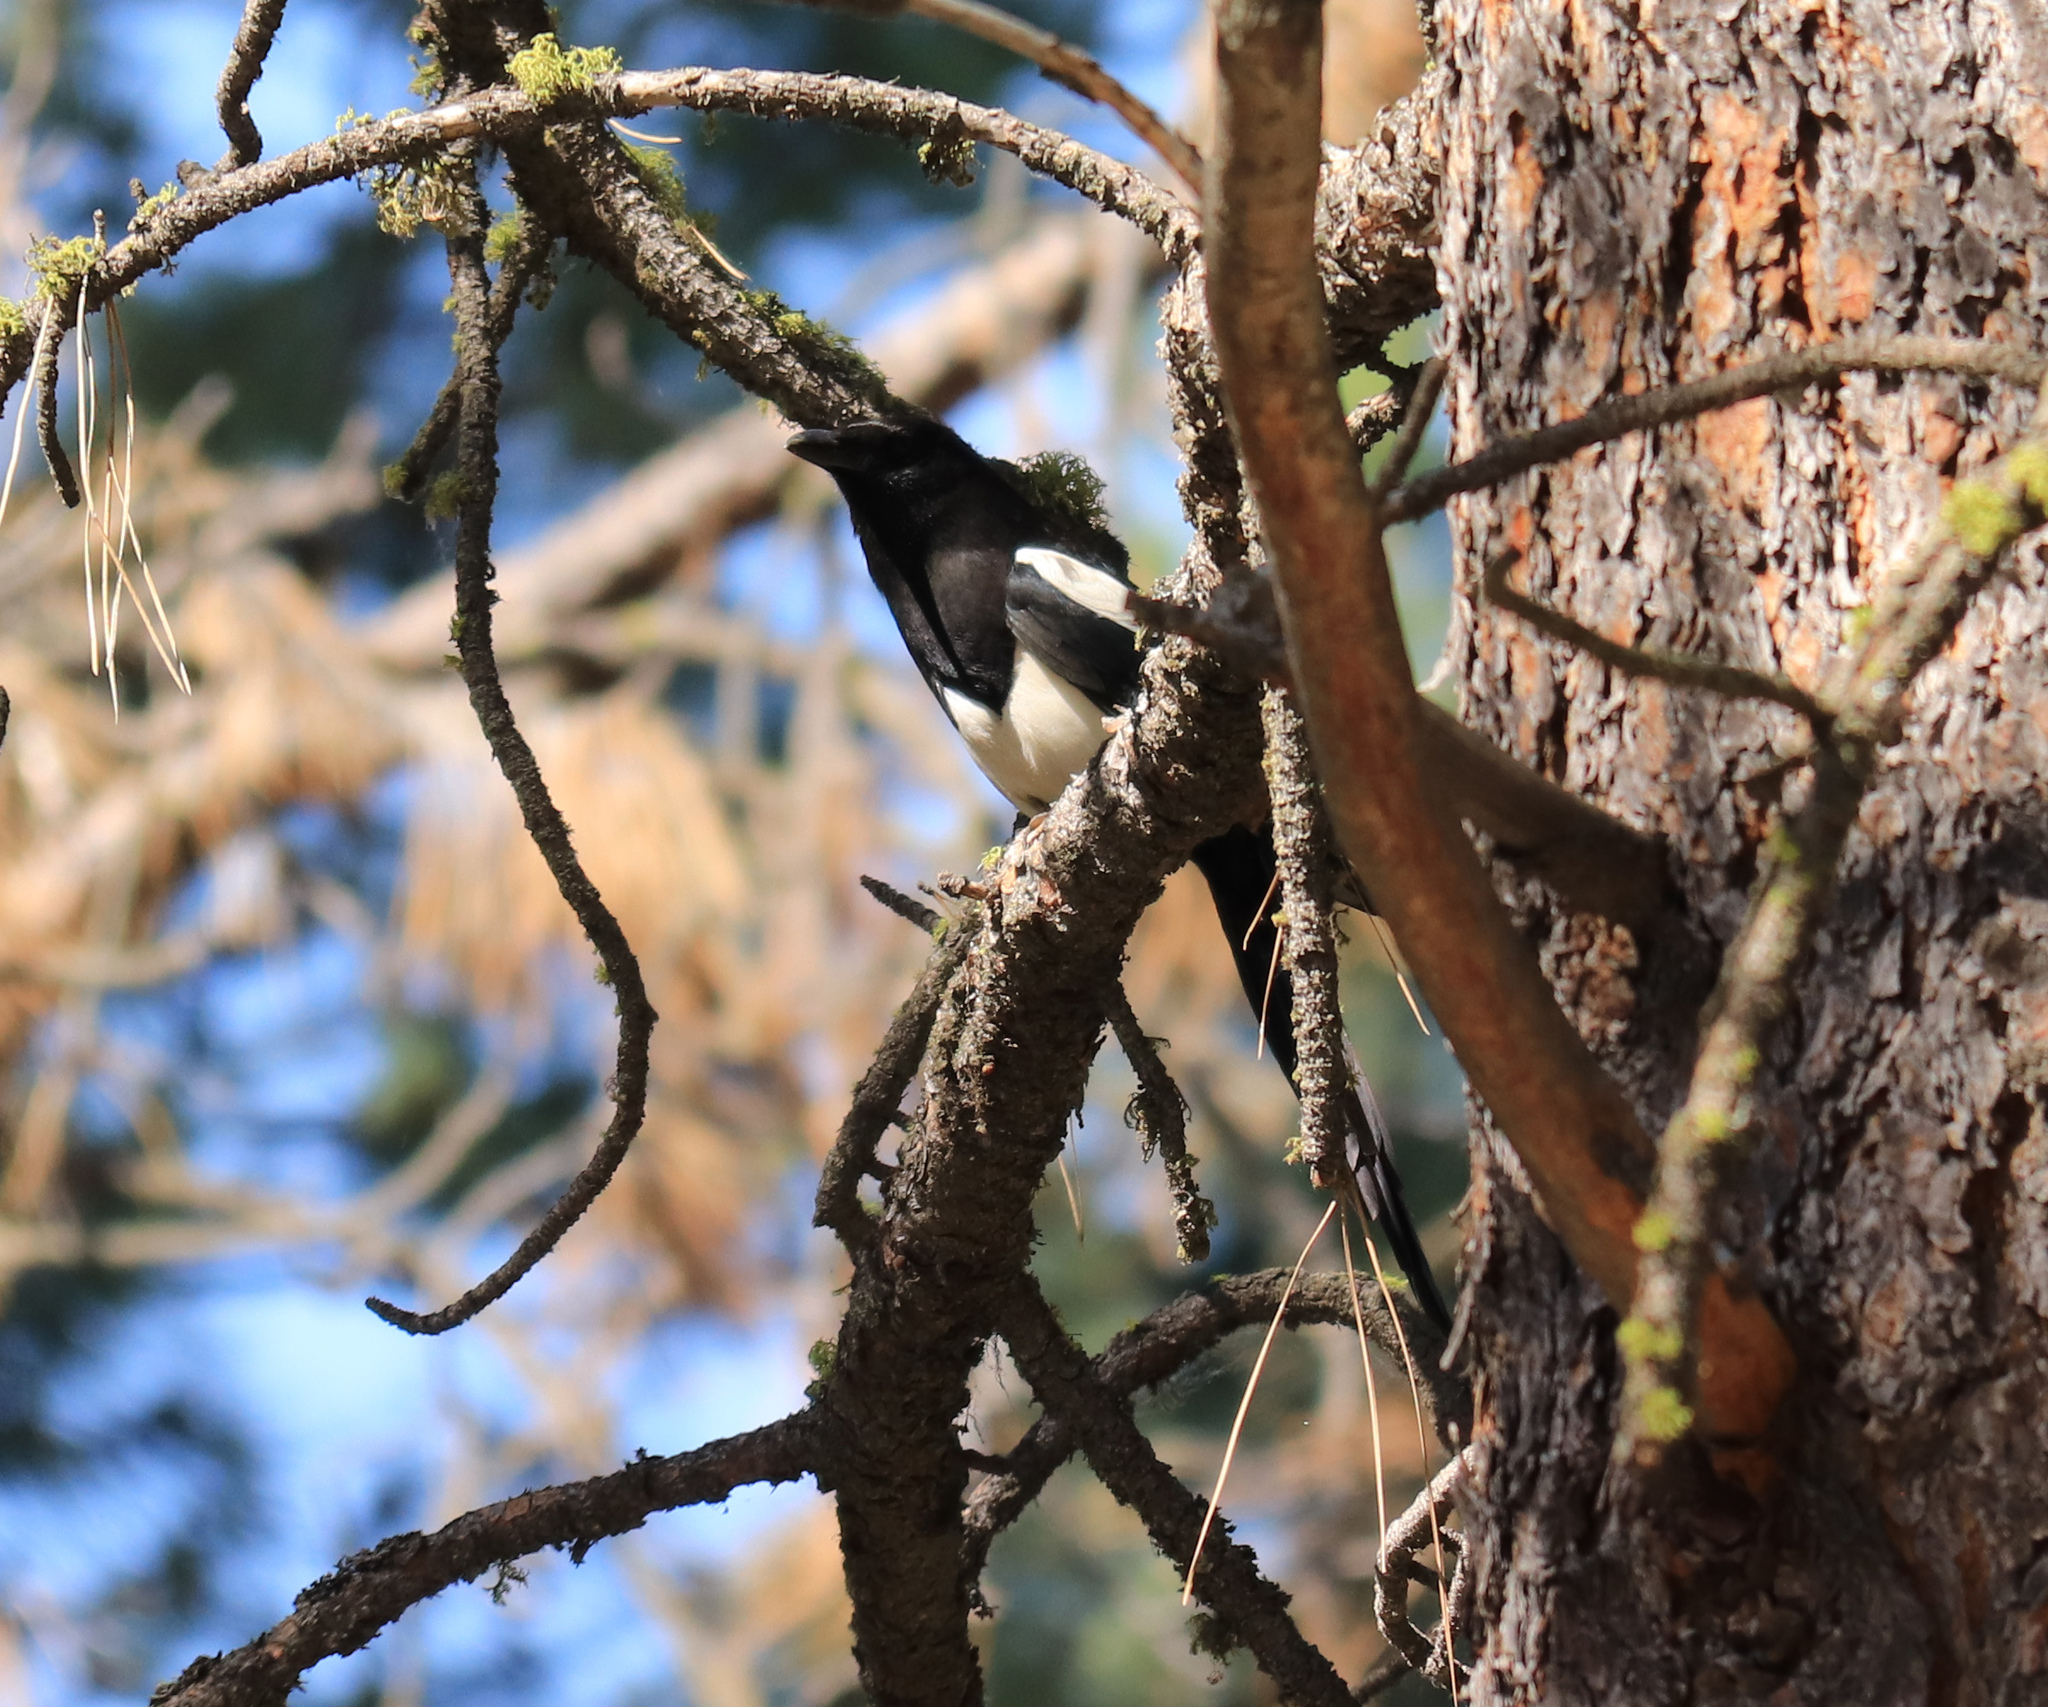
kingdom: Animalia
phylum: Chordata
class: Aves
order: Passeriformes
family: Corvidae
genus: Pica
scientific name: Pica hudsonia
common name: Black-billed magpie
